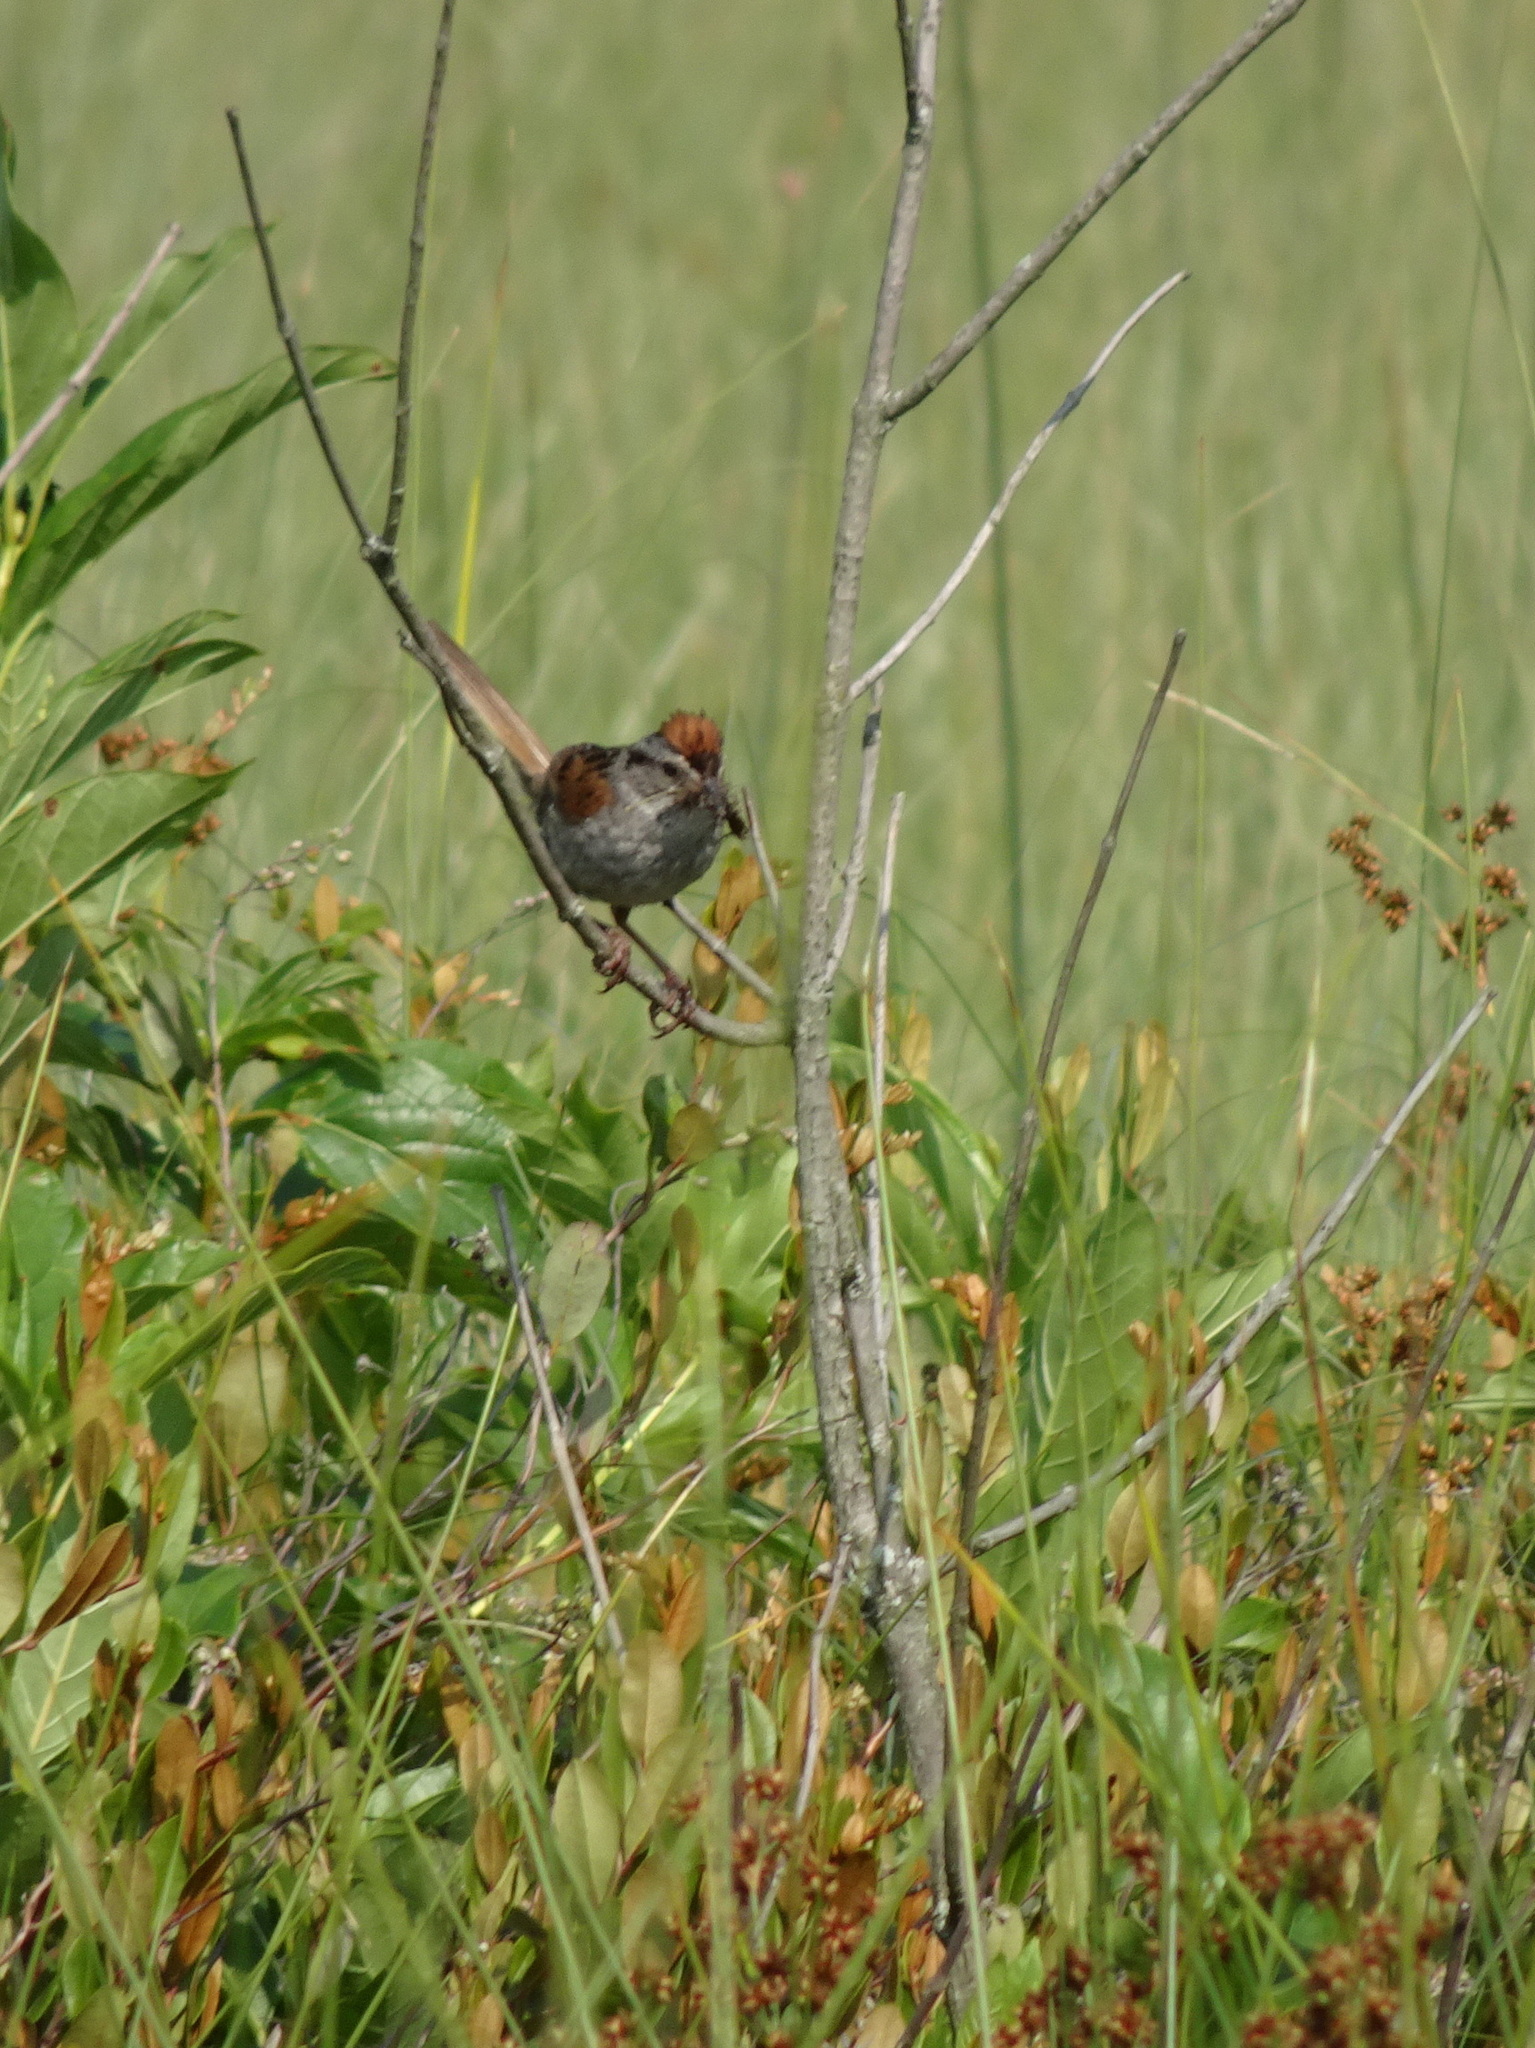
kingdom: Animalia
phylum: Chordata
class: Aves
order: Passeriformes
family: Passerellidae
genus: Melospiza
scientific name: Melospiza georgiana
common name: Swamp sparrow
